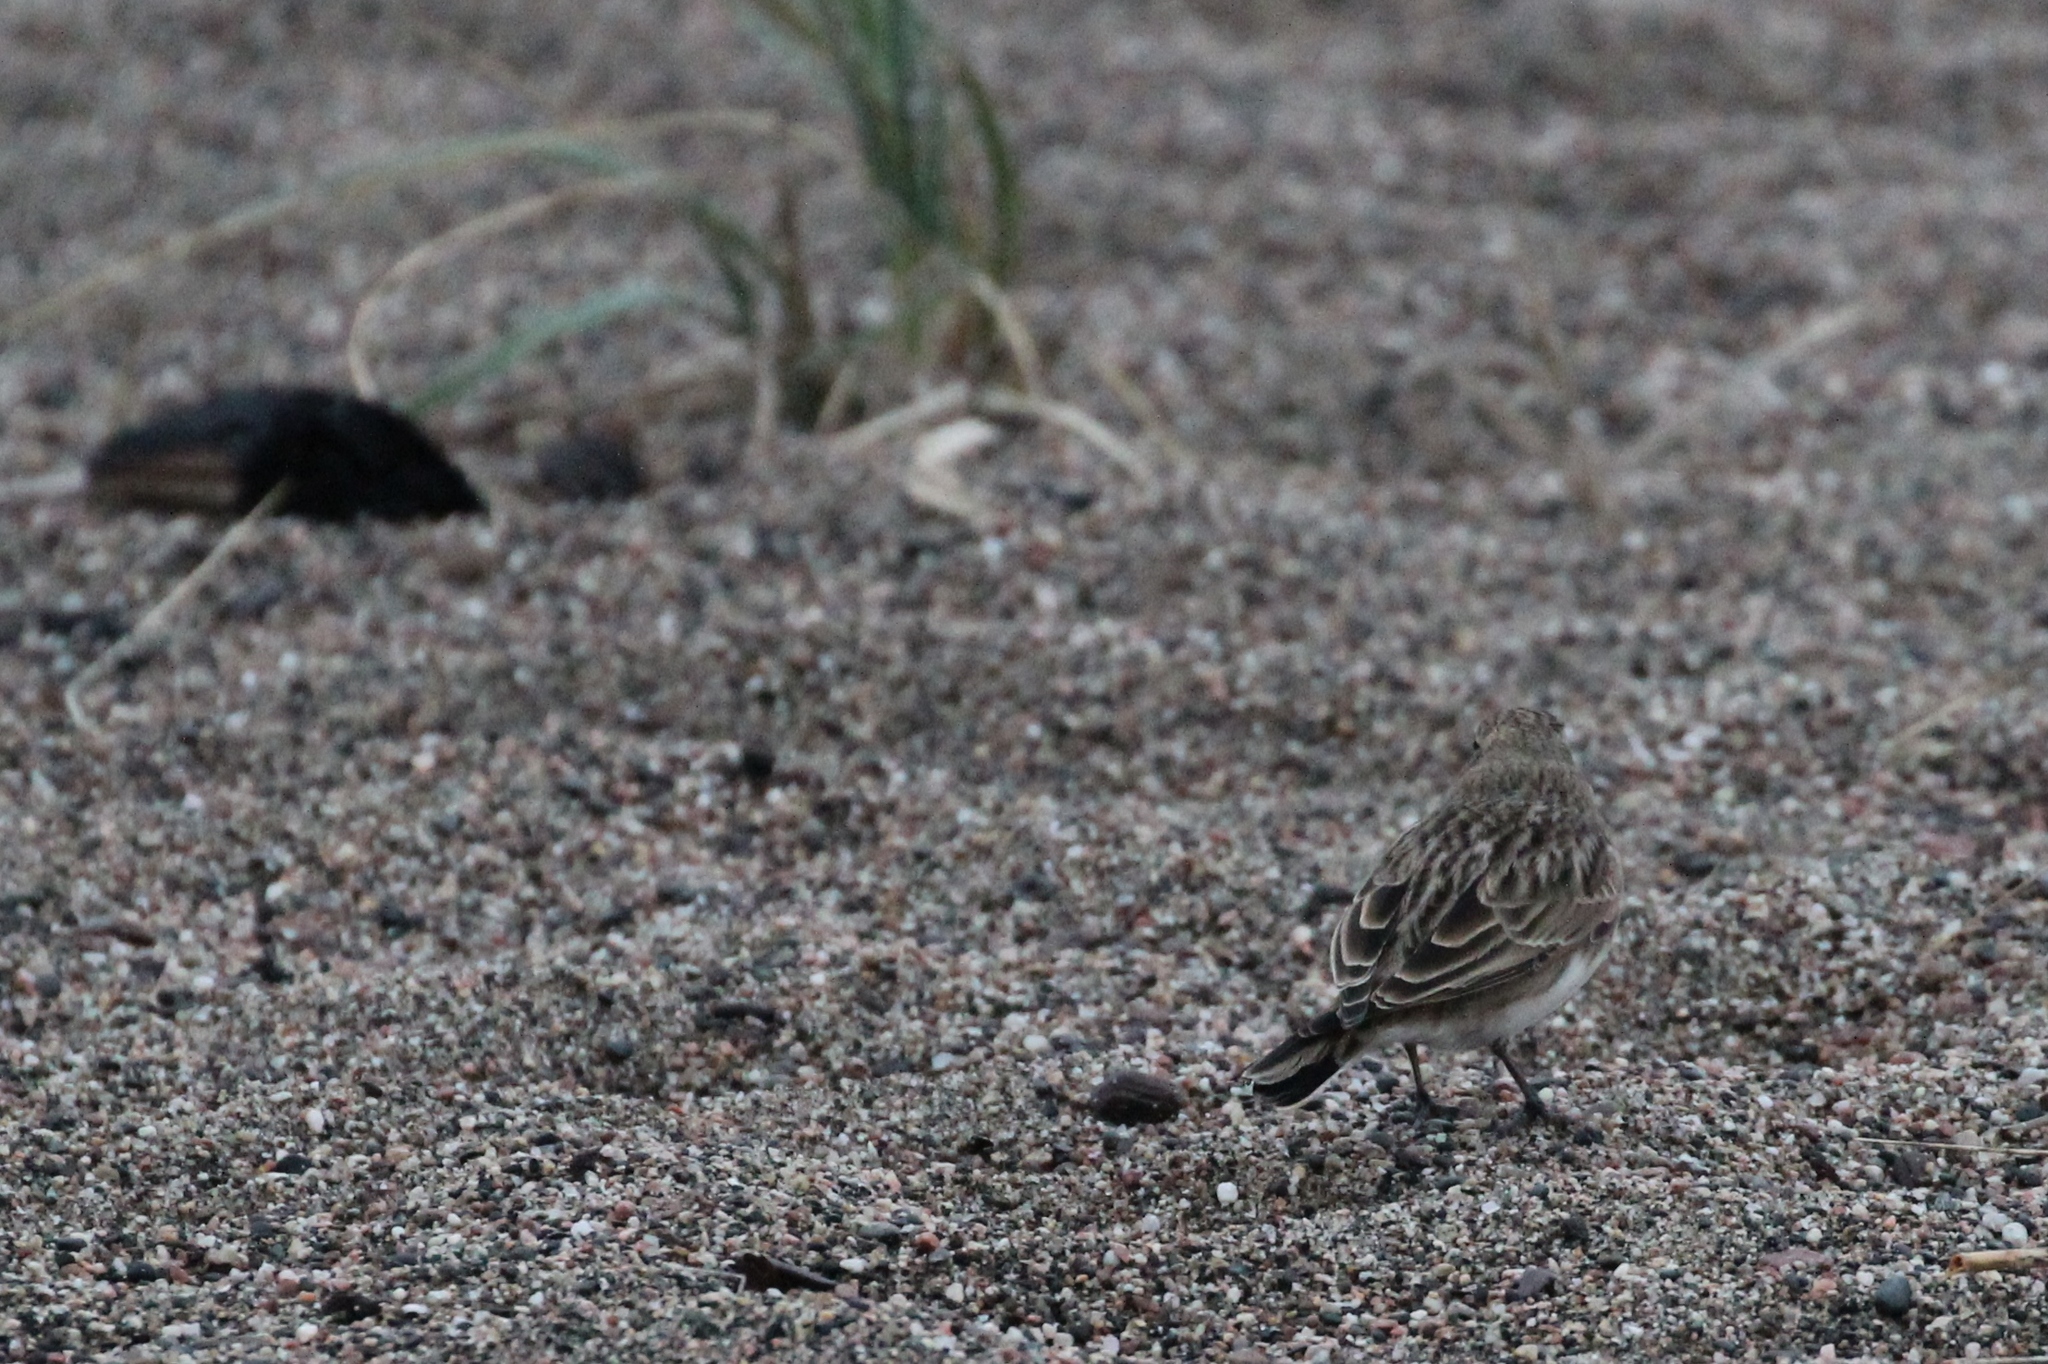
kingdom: Animalia
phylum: Chordata
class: Aves
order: Passeriformes
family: Alaudidae
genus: Eremophila
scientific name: Eremophila alpestris
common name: Horned lark
